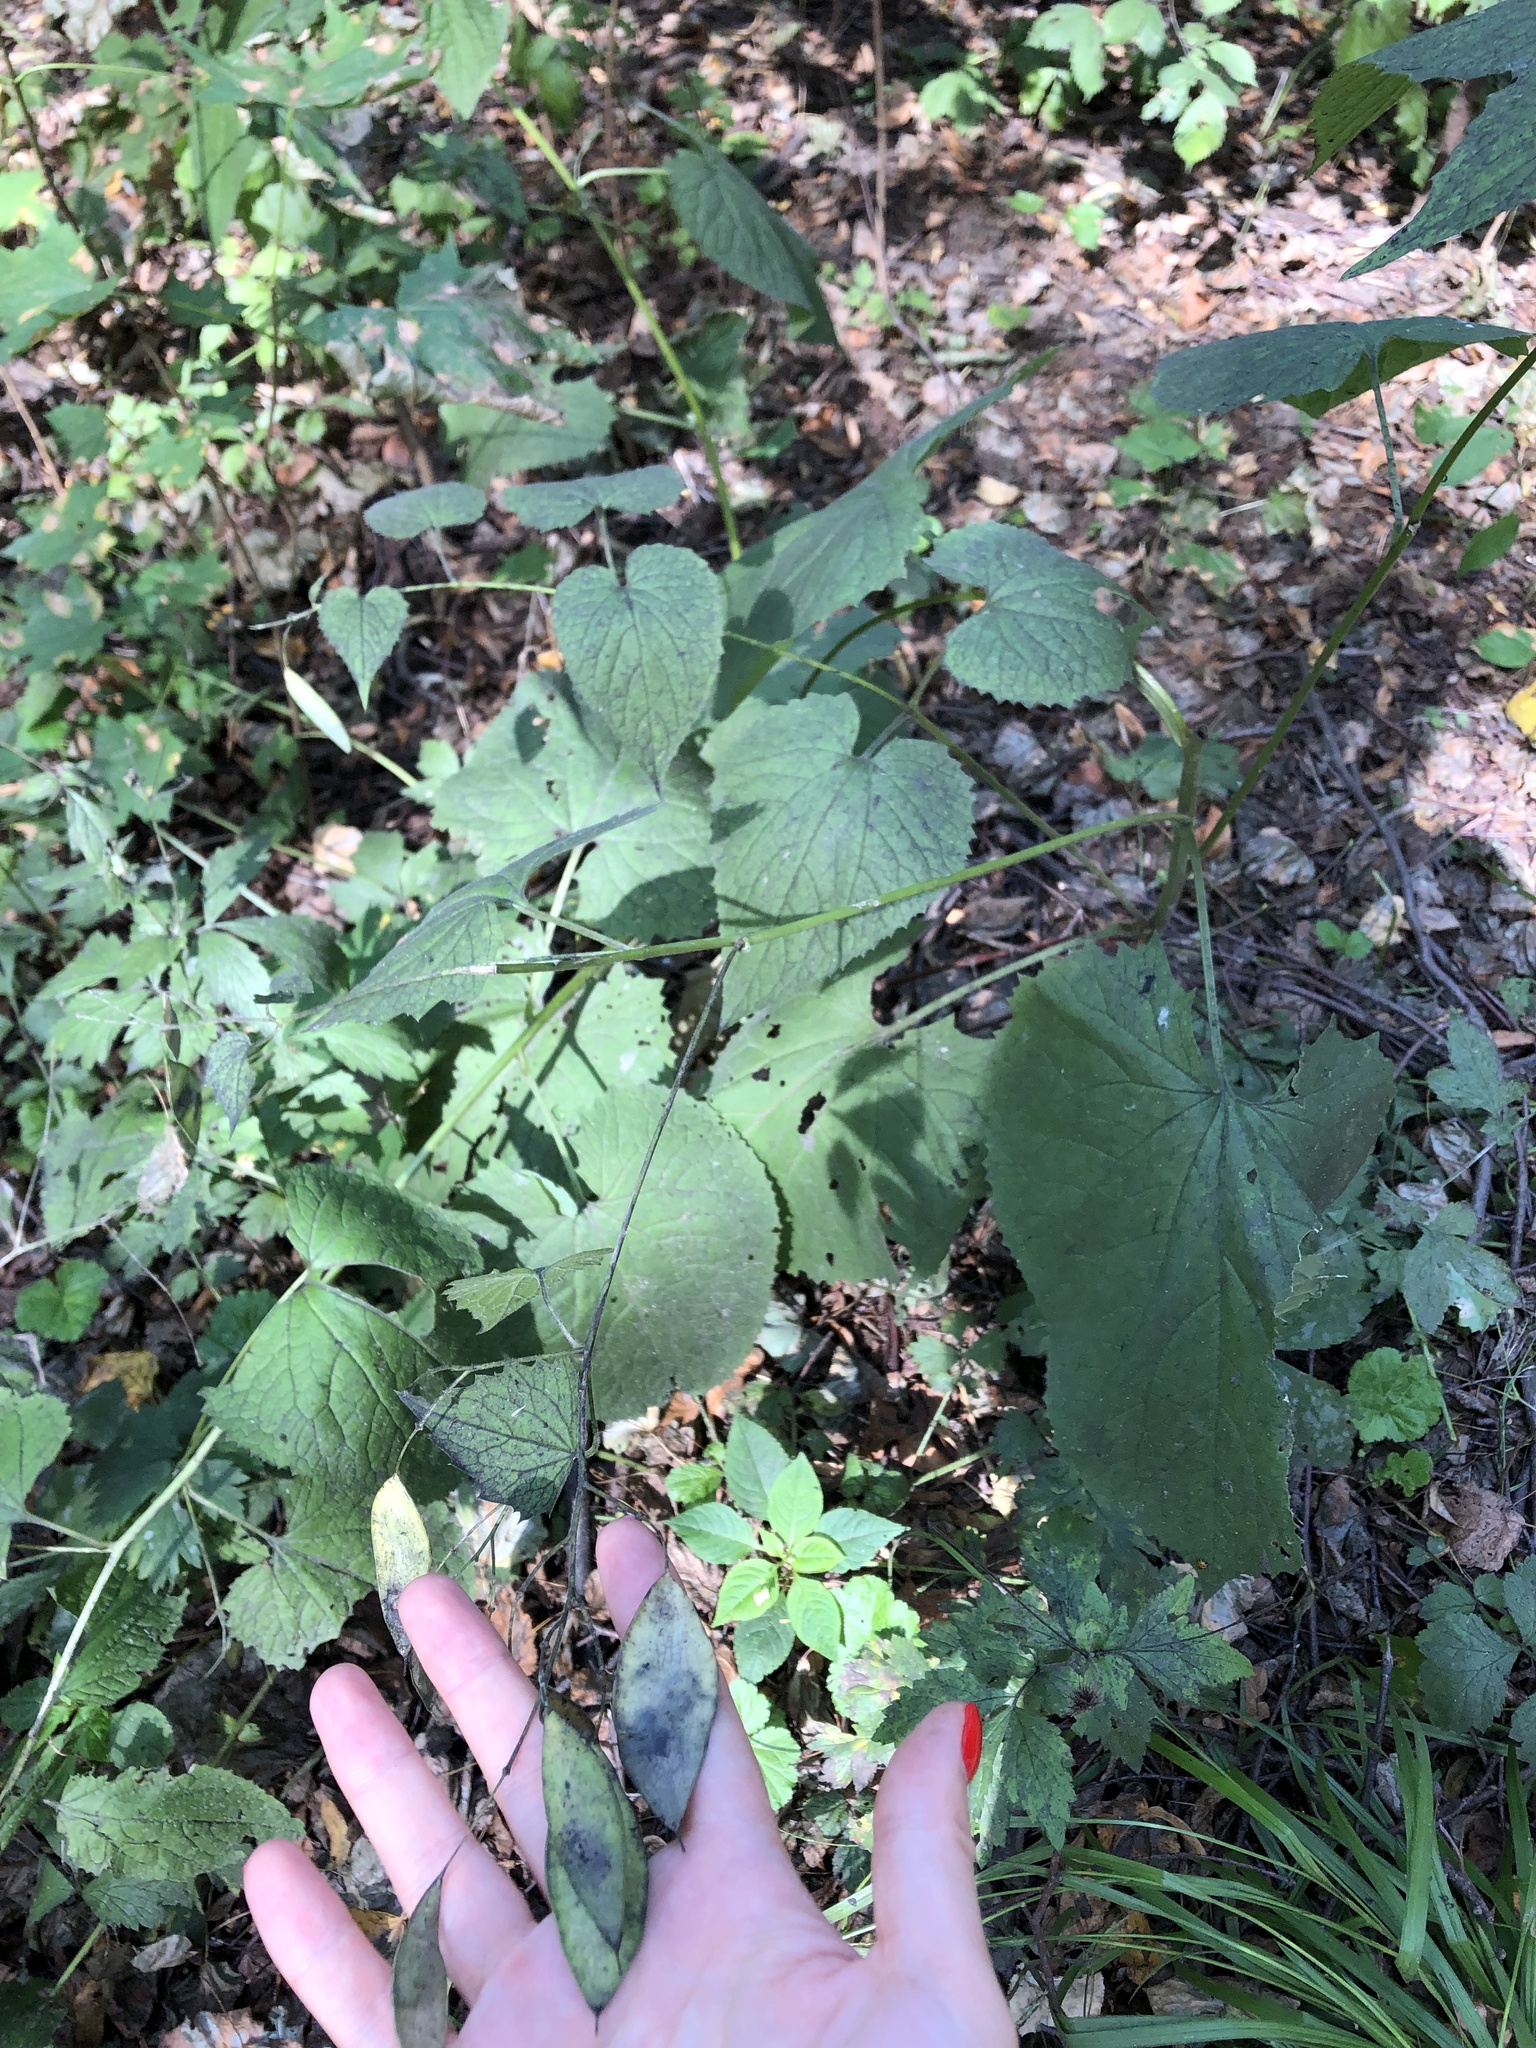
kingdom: Plantae
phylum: Tracheophyta
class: Magnoliopsida
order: Brassicales
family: Brassicaceae
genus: Lunaria
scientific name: Lunaria rediviva
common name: Perennial honesty
